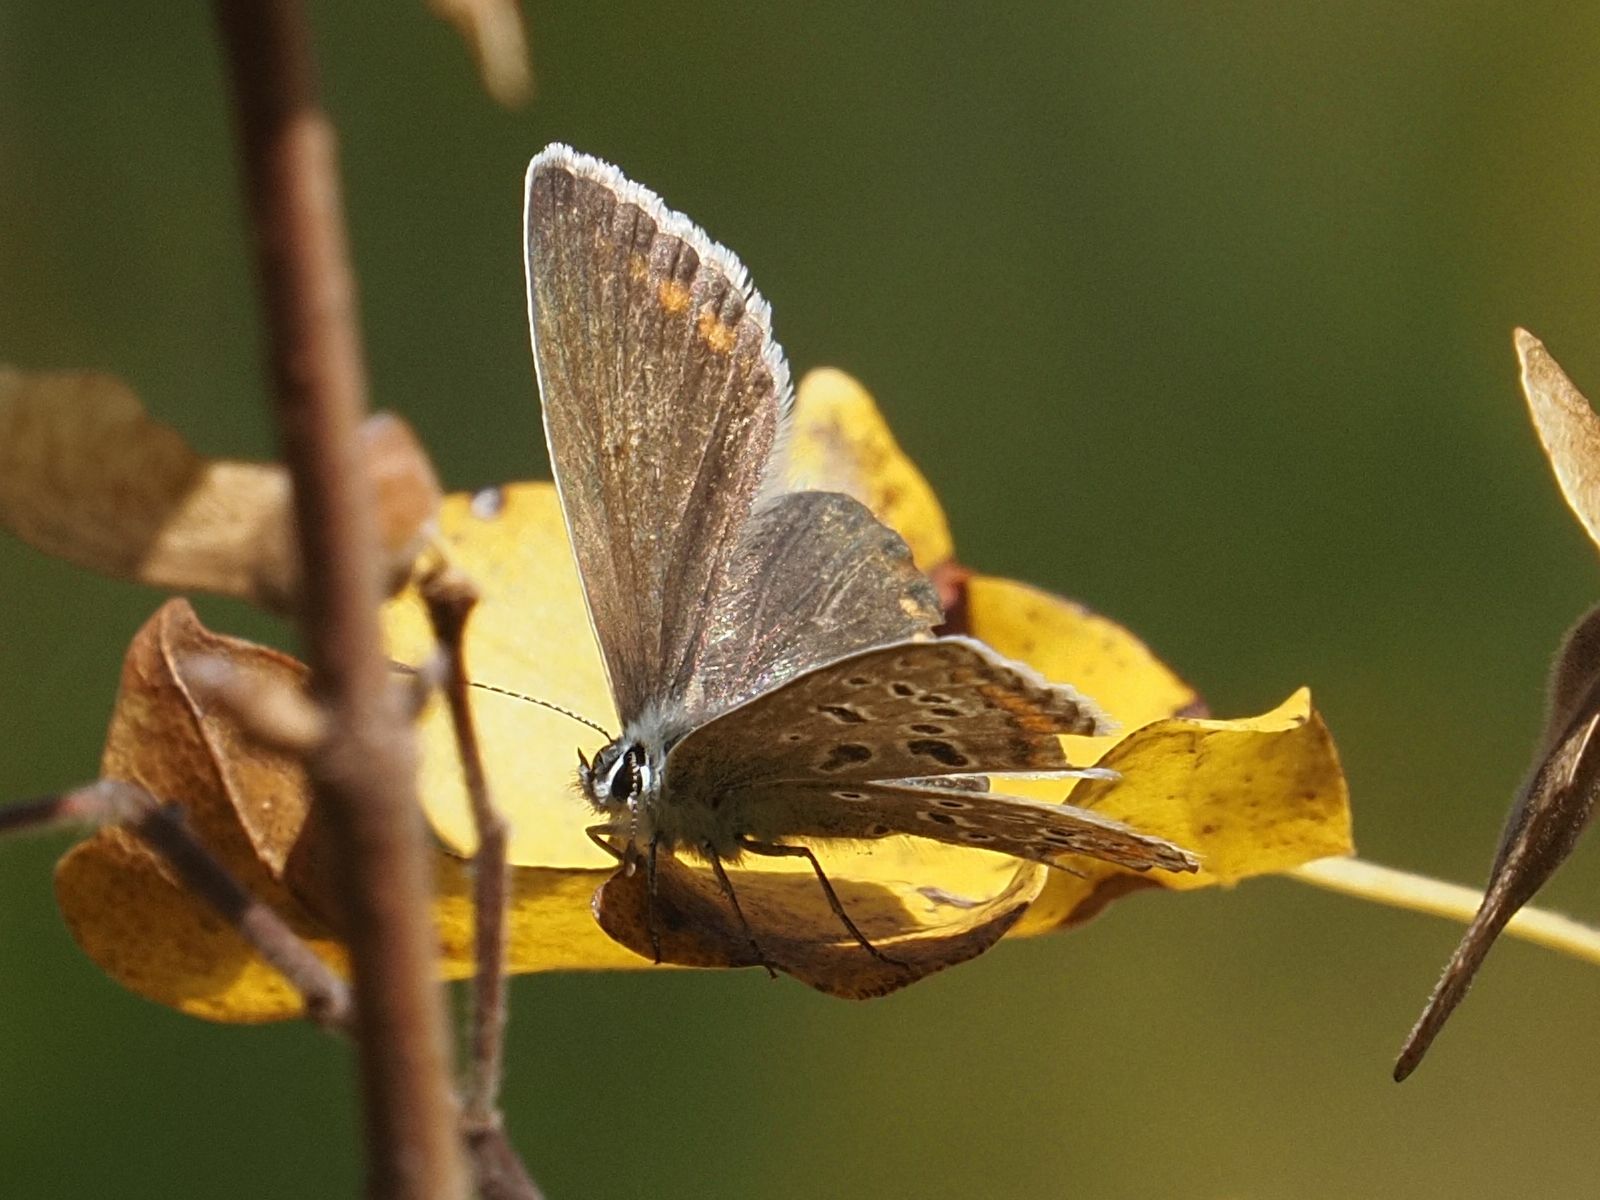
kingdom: Animalia
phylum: Arthropoda
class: Insecta
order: Lepidoptera
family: Lycaenidae
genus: Polyommatus
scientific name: Polyommatus icarus
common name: Common blue
